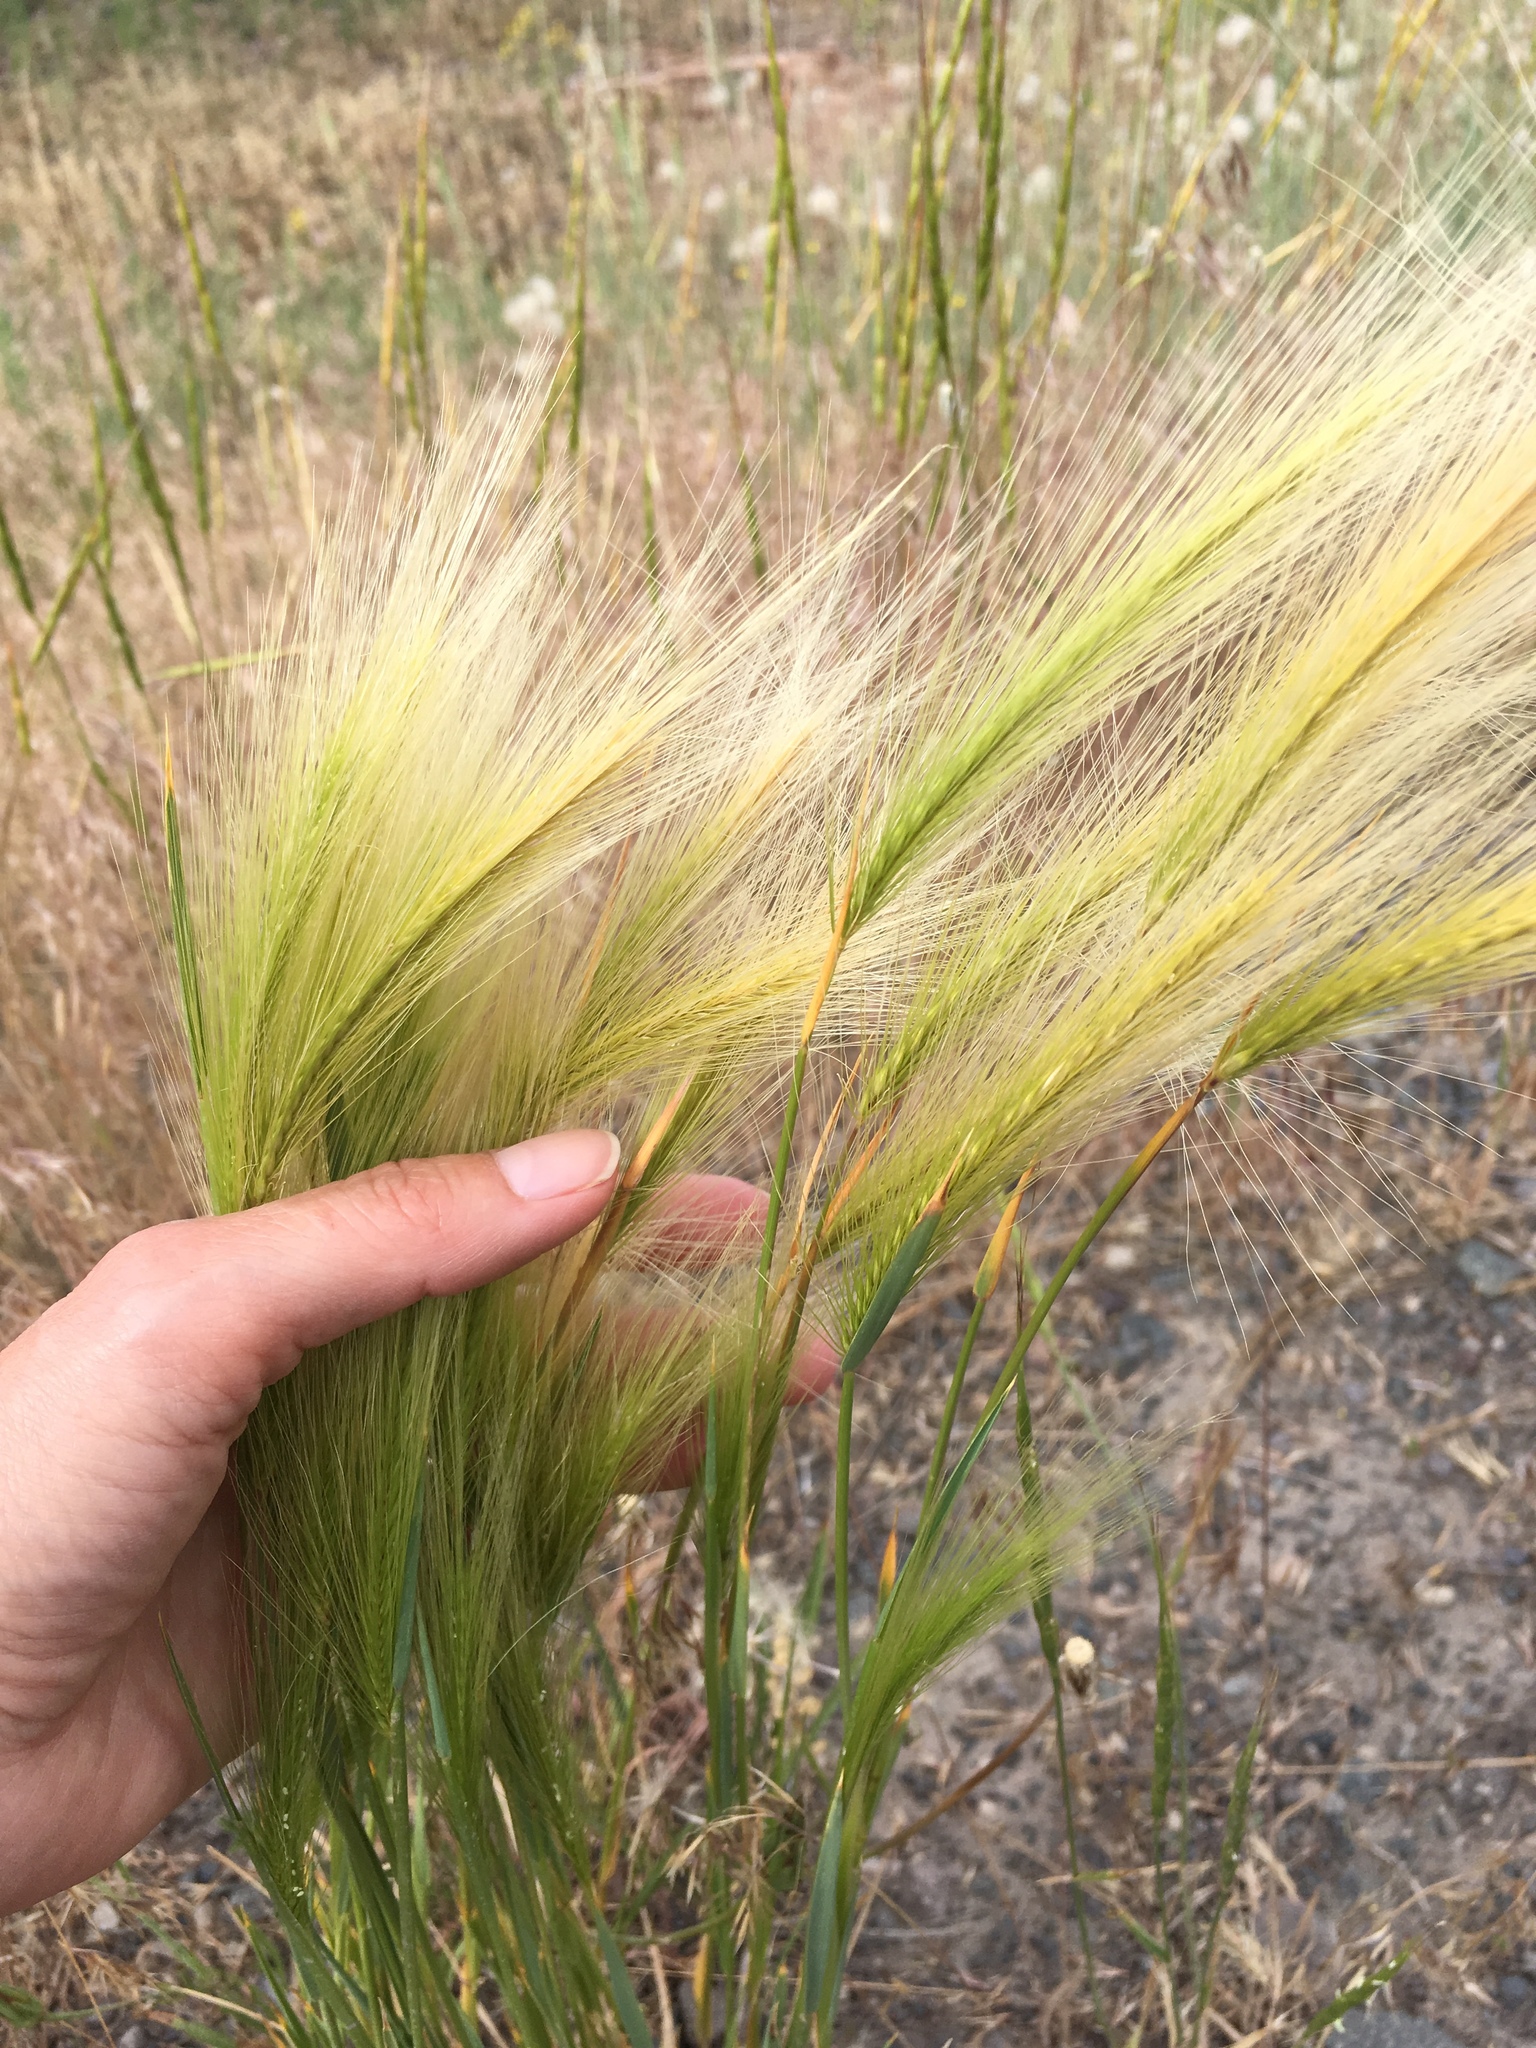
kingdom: Plantae
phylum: Tracheophyta
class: Liliopsida
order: Poales
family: Poaceae
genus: Hordeum
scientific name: Hordeum jubatum
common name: Foxtail barley
